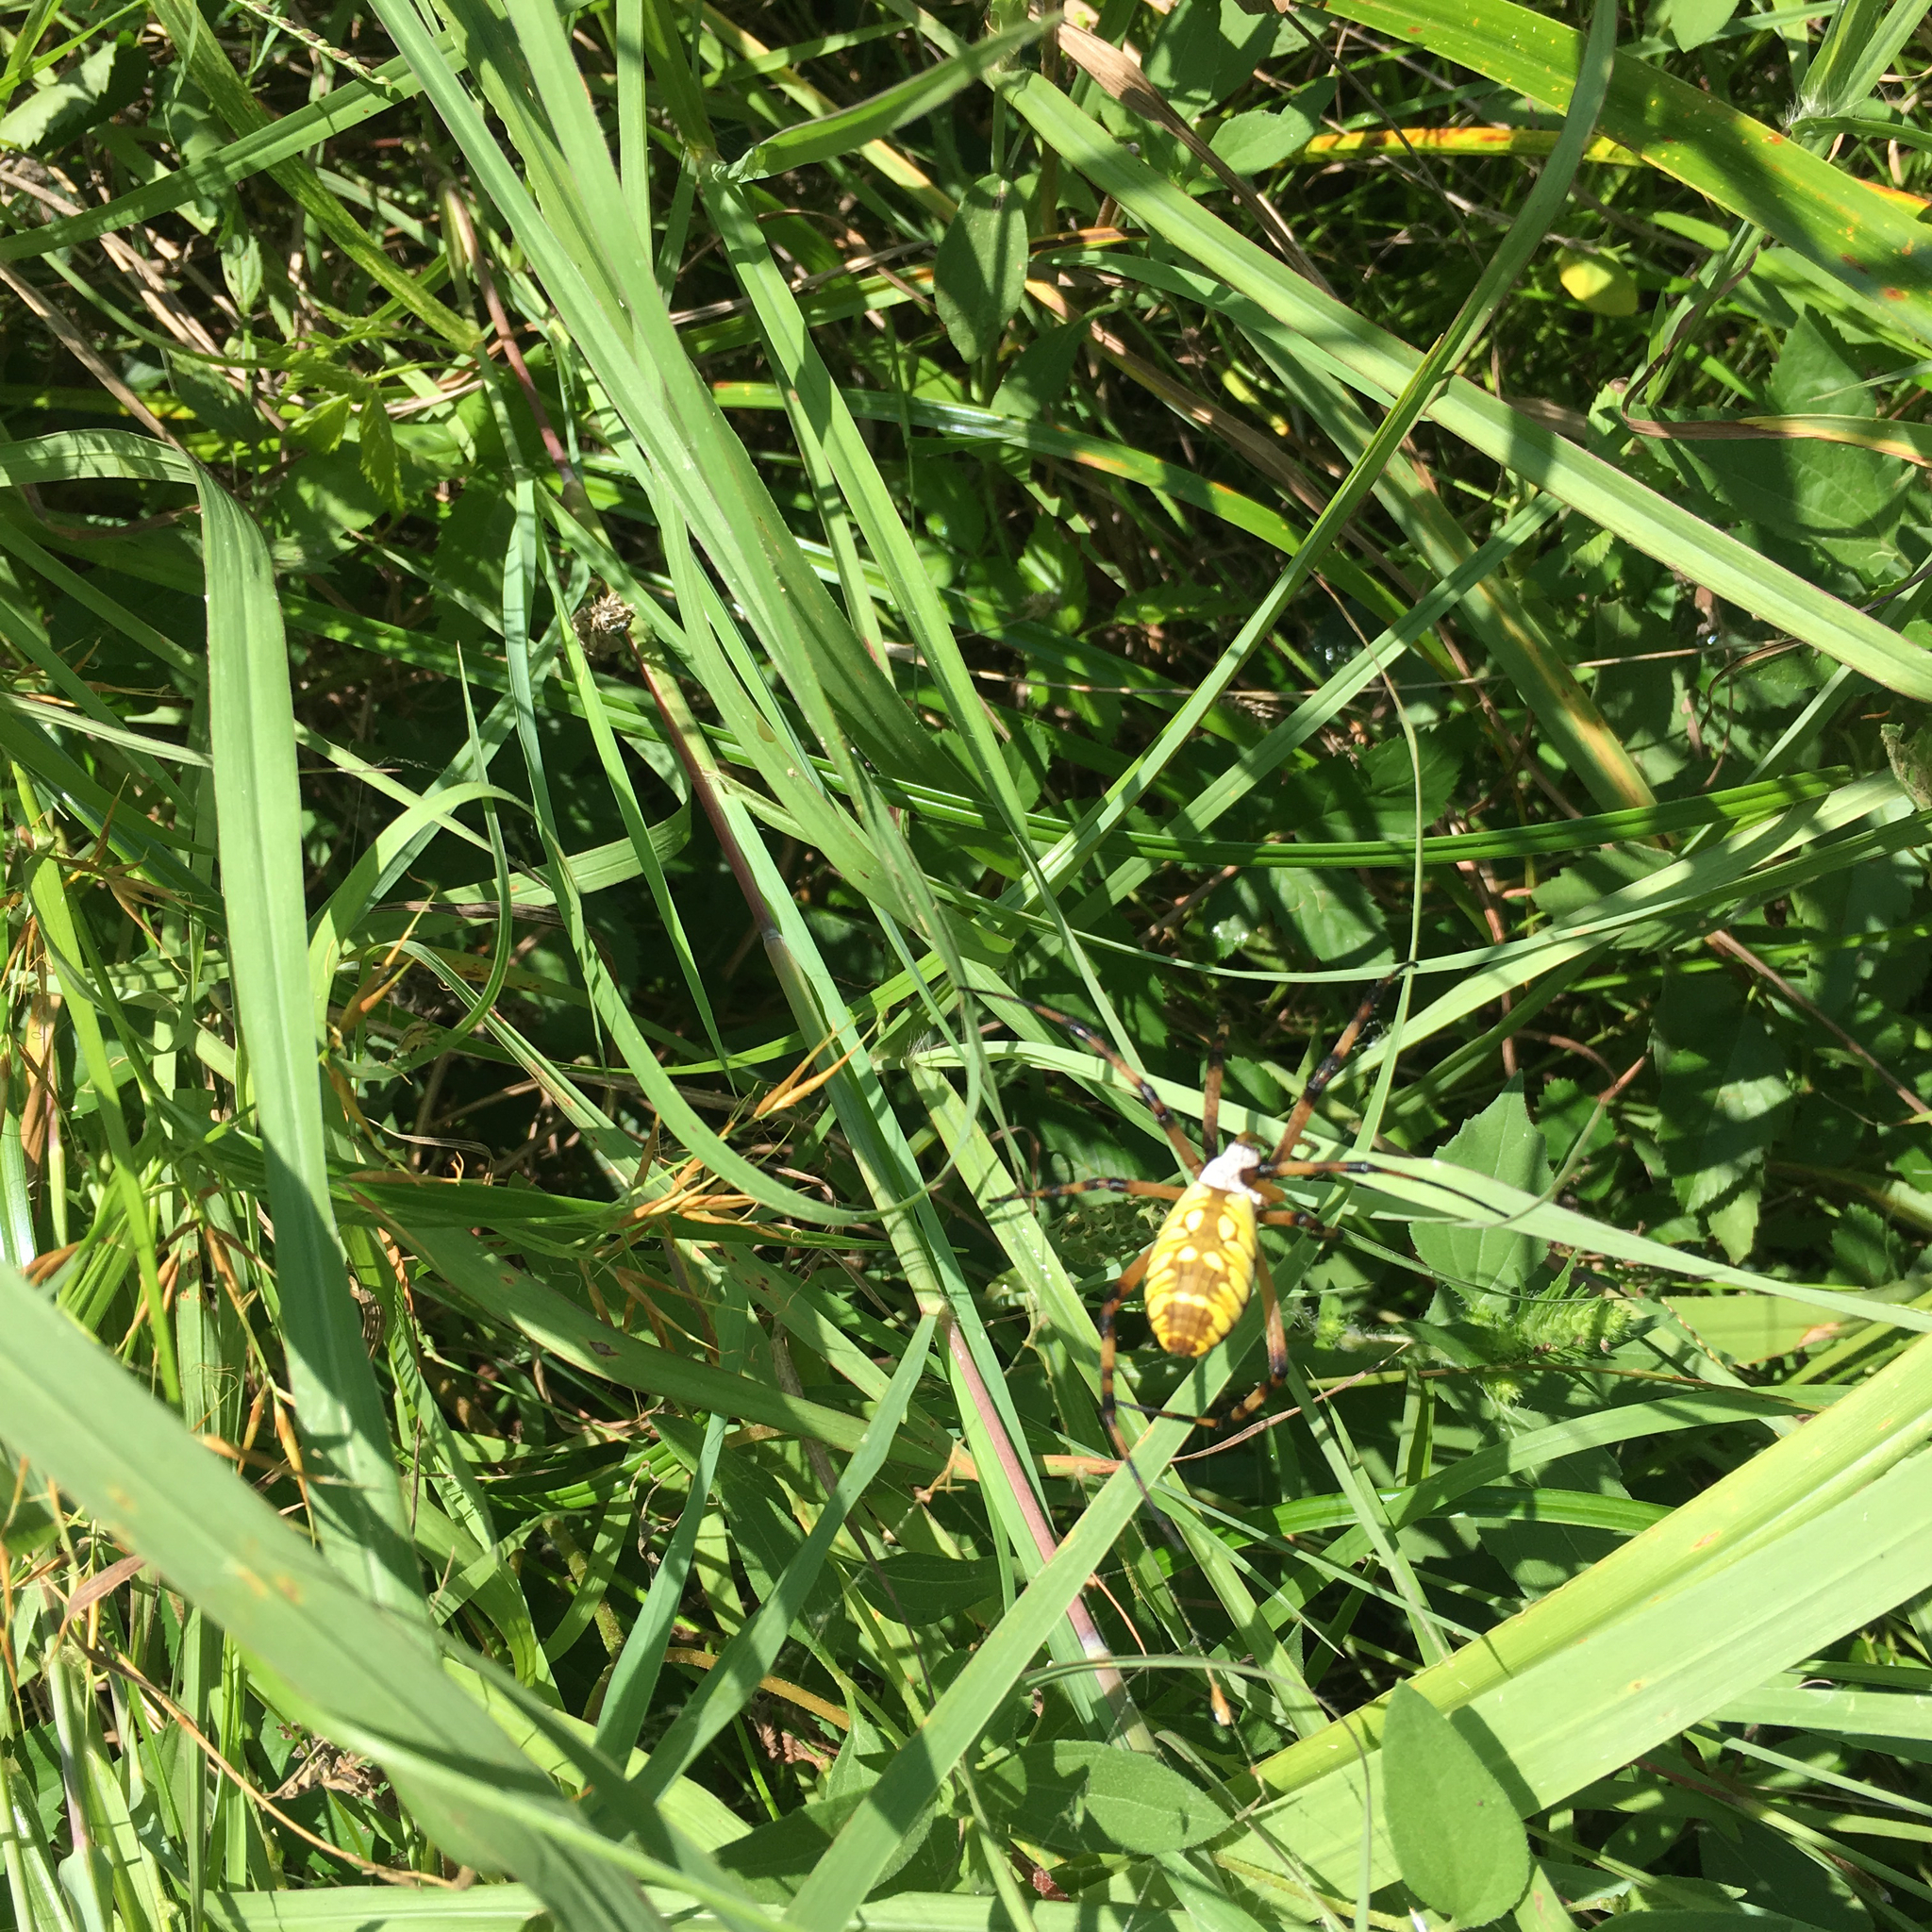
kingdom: Animalia
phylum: Arthropoda
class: Arachnida
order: Araneae
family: Araneidae
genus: Argiope
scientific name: Argiope aurantia
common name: Orb weavers
